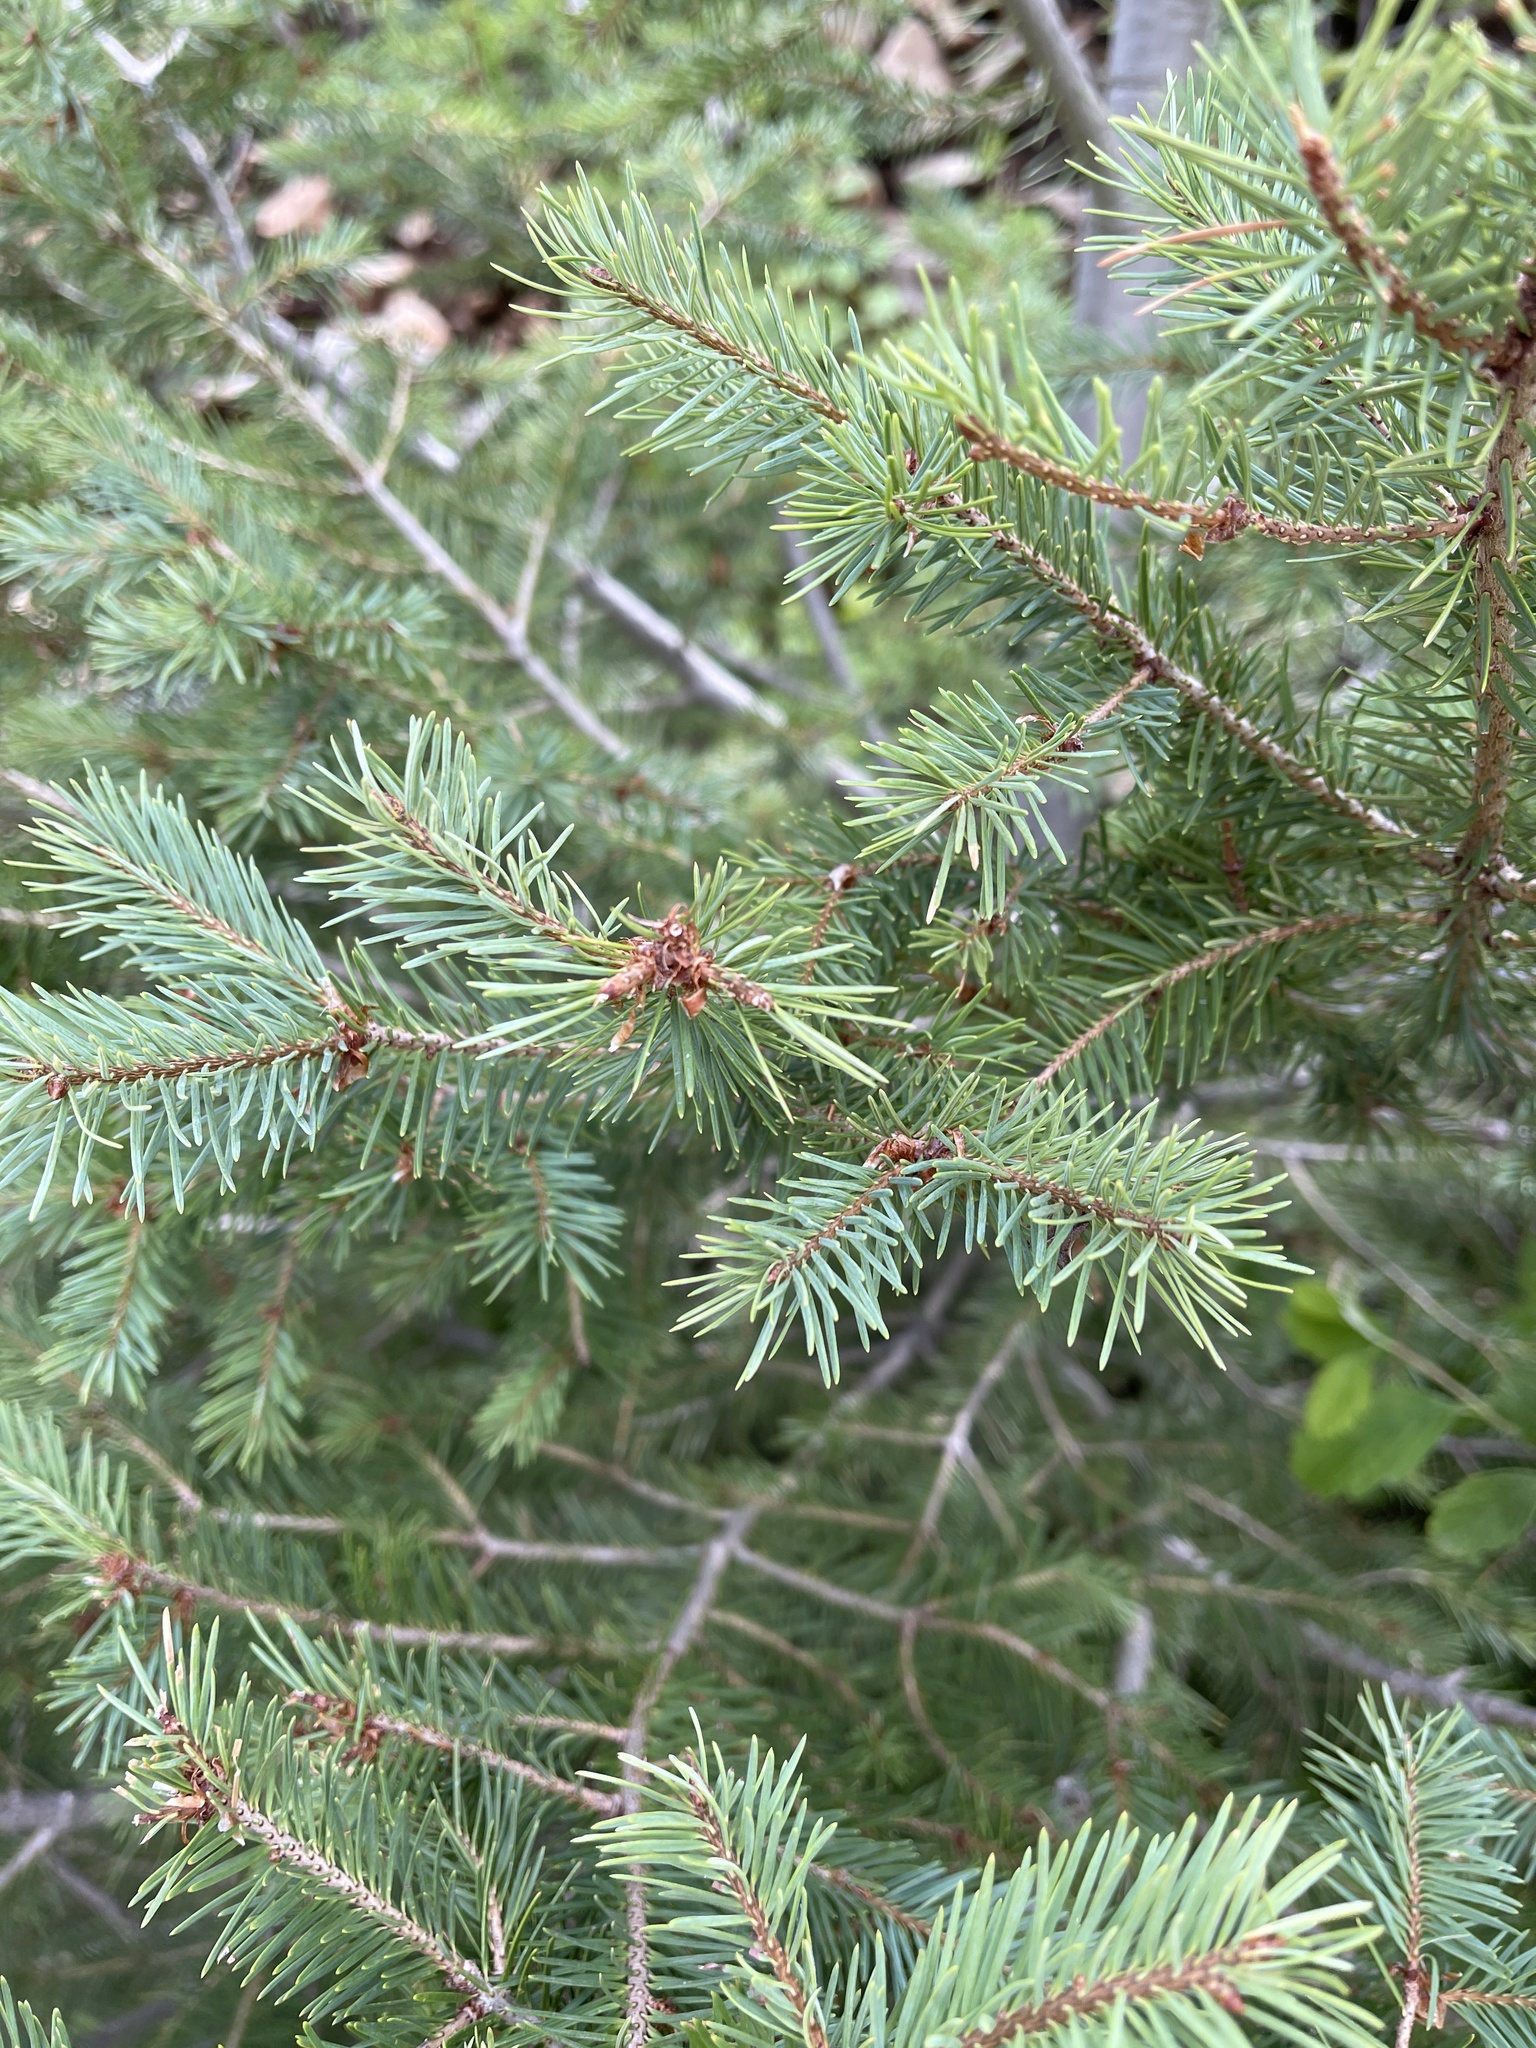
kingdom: Plantae
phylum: Tracheophyta
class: Pinopsida
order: Pinales
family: Pinaceae
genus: Pseudotsuga
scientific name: Pseudotsuga menziesii
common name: Douglas fir
